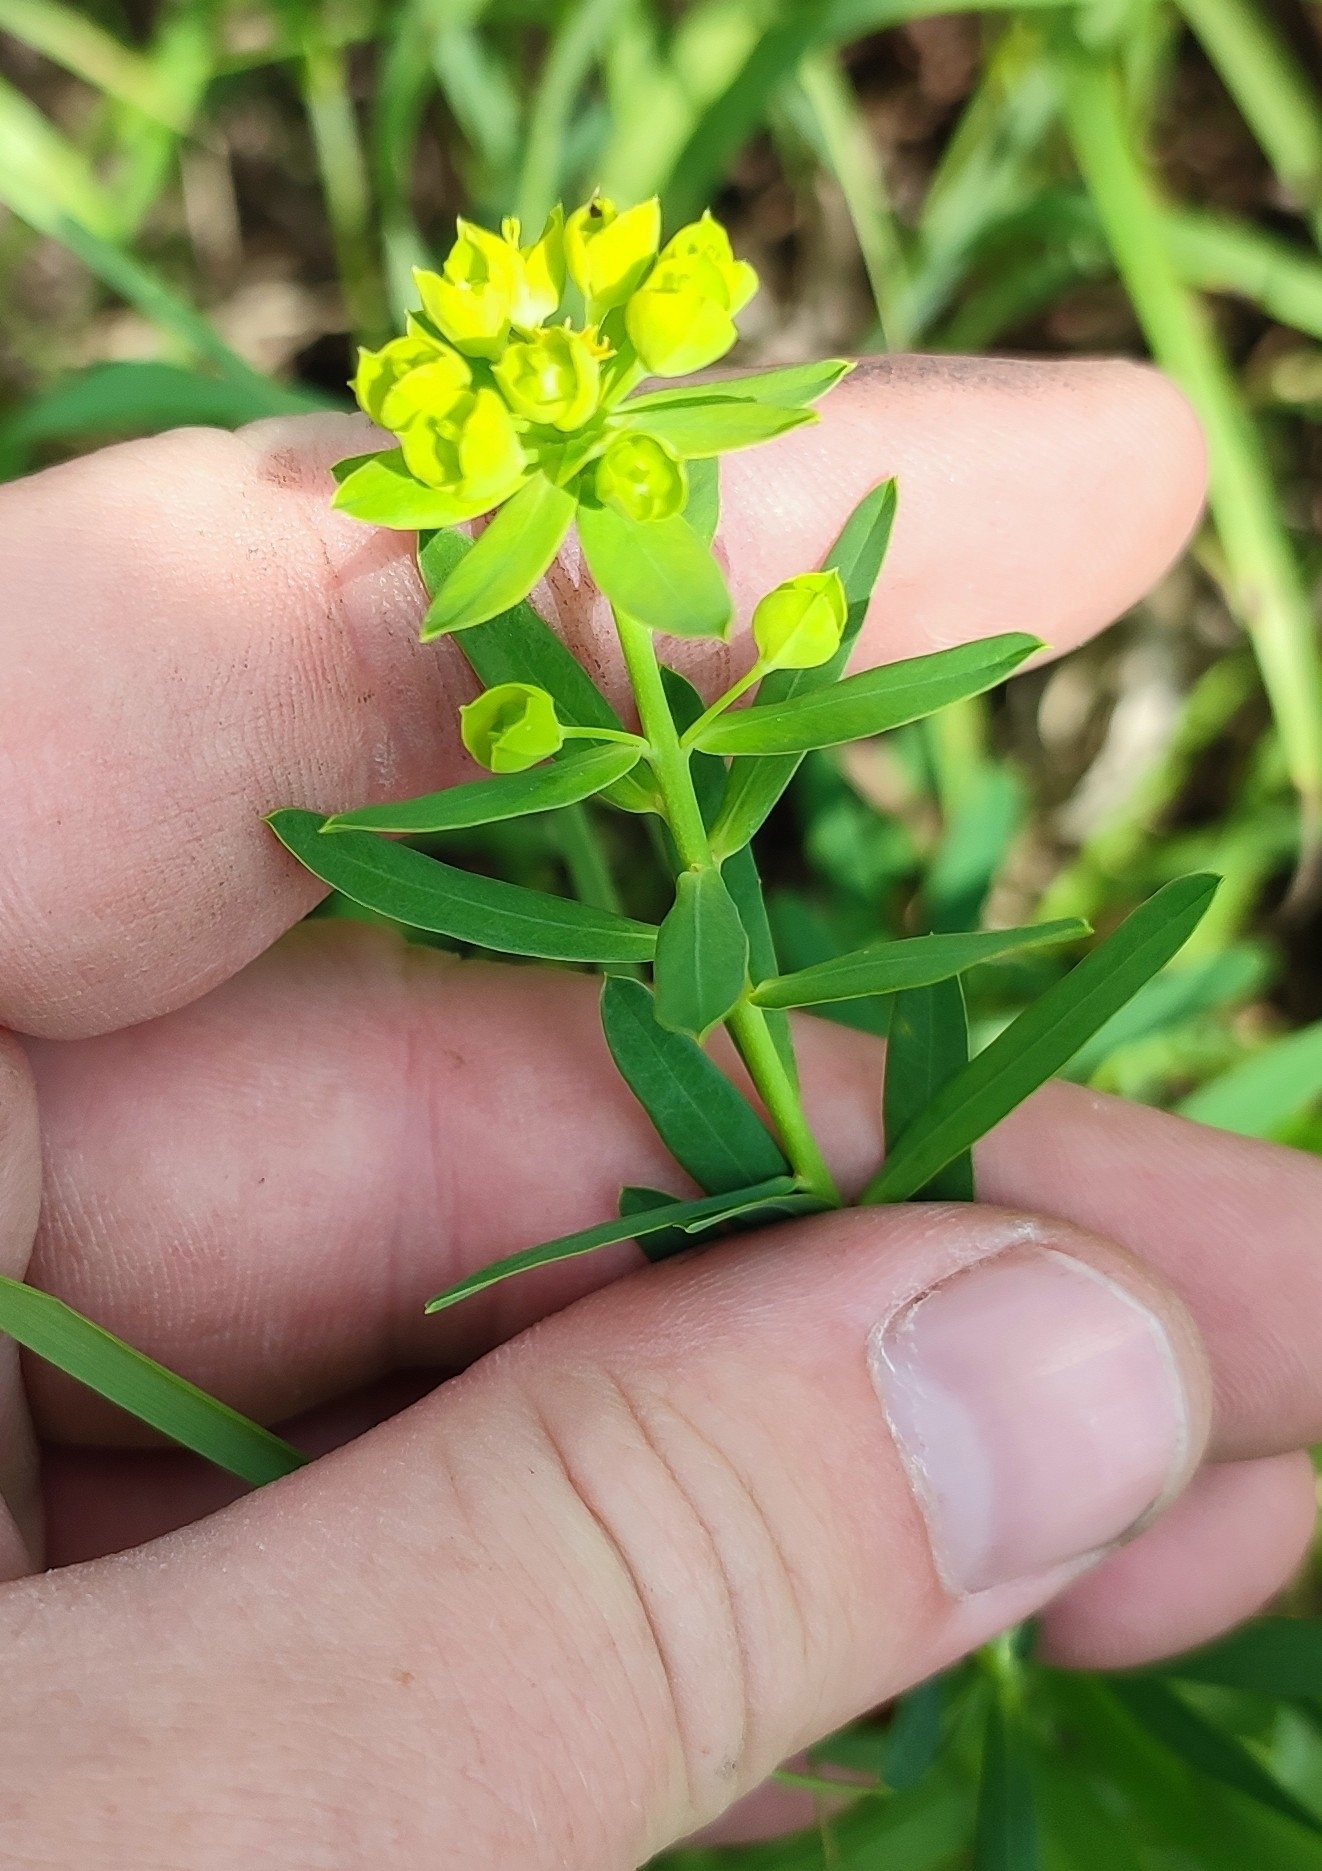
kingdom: Plantae
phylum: Tracheophyta
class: Magnoliopsida
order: Malpighiales
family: Euphorbiaceae
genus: Euphorbia
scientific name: Euphorbia virgata
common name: Leafy spurge
